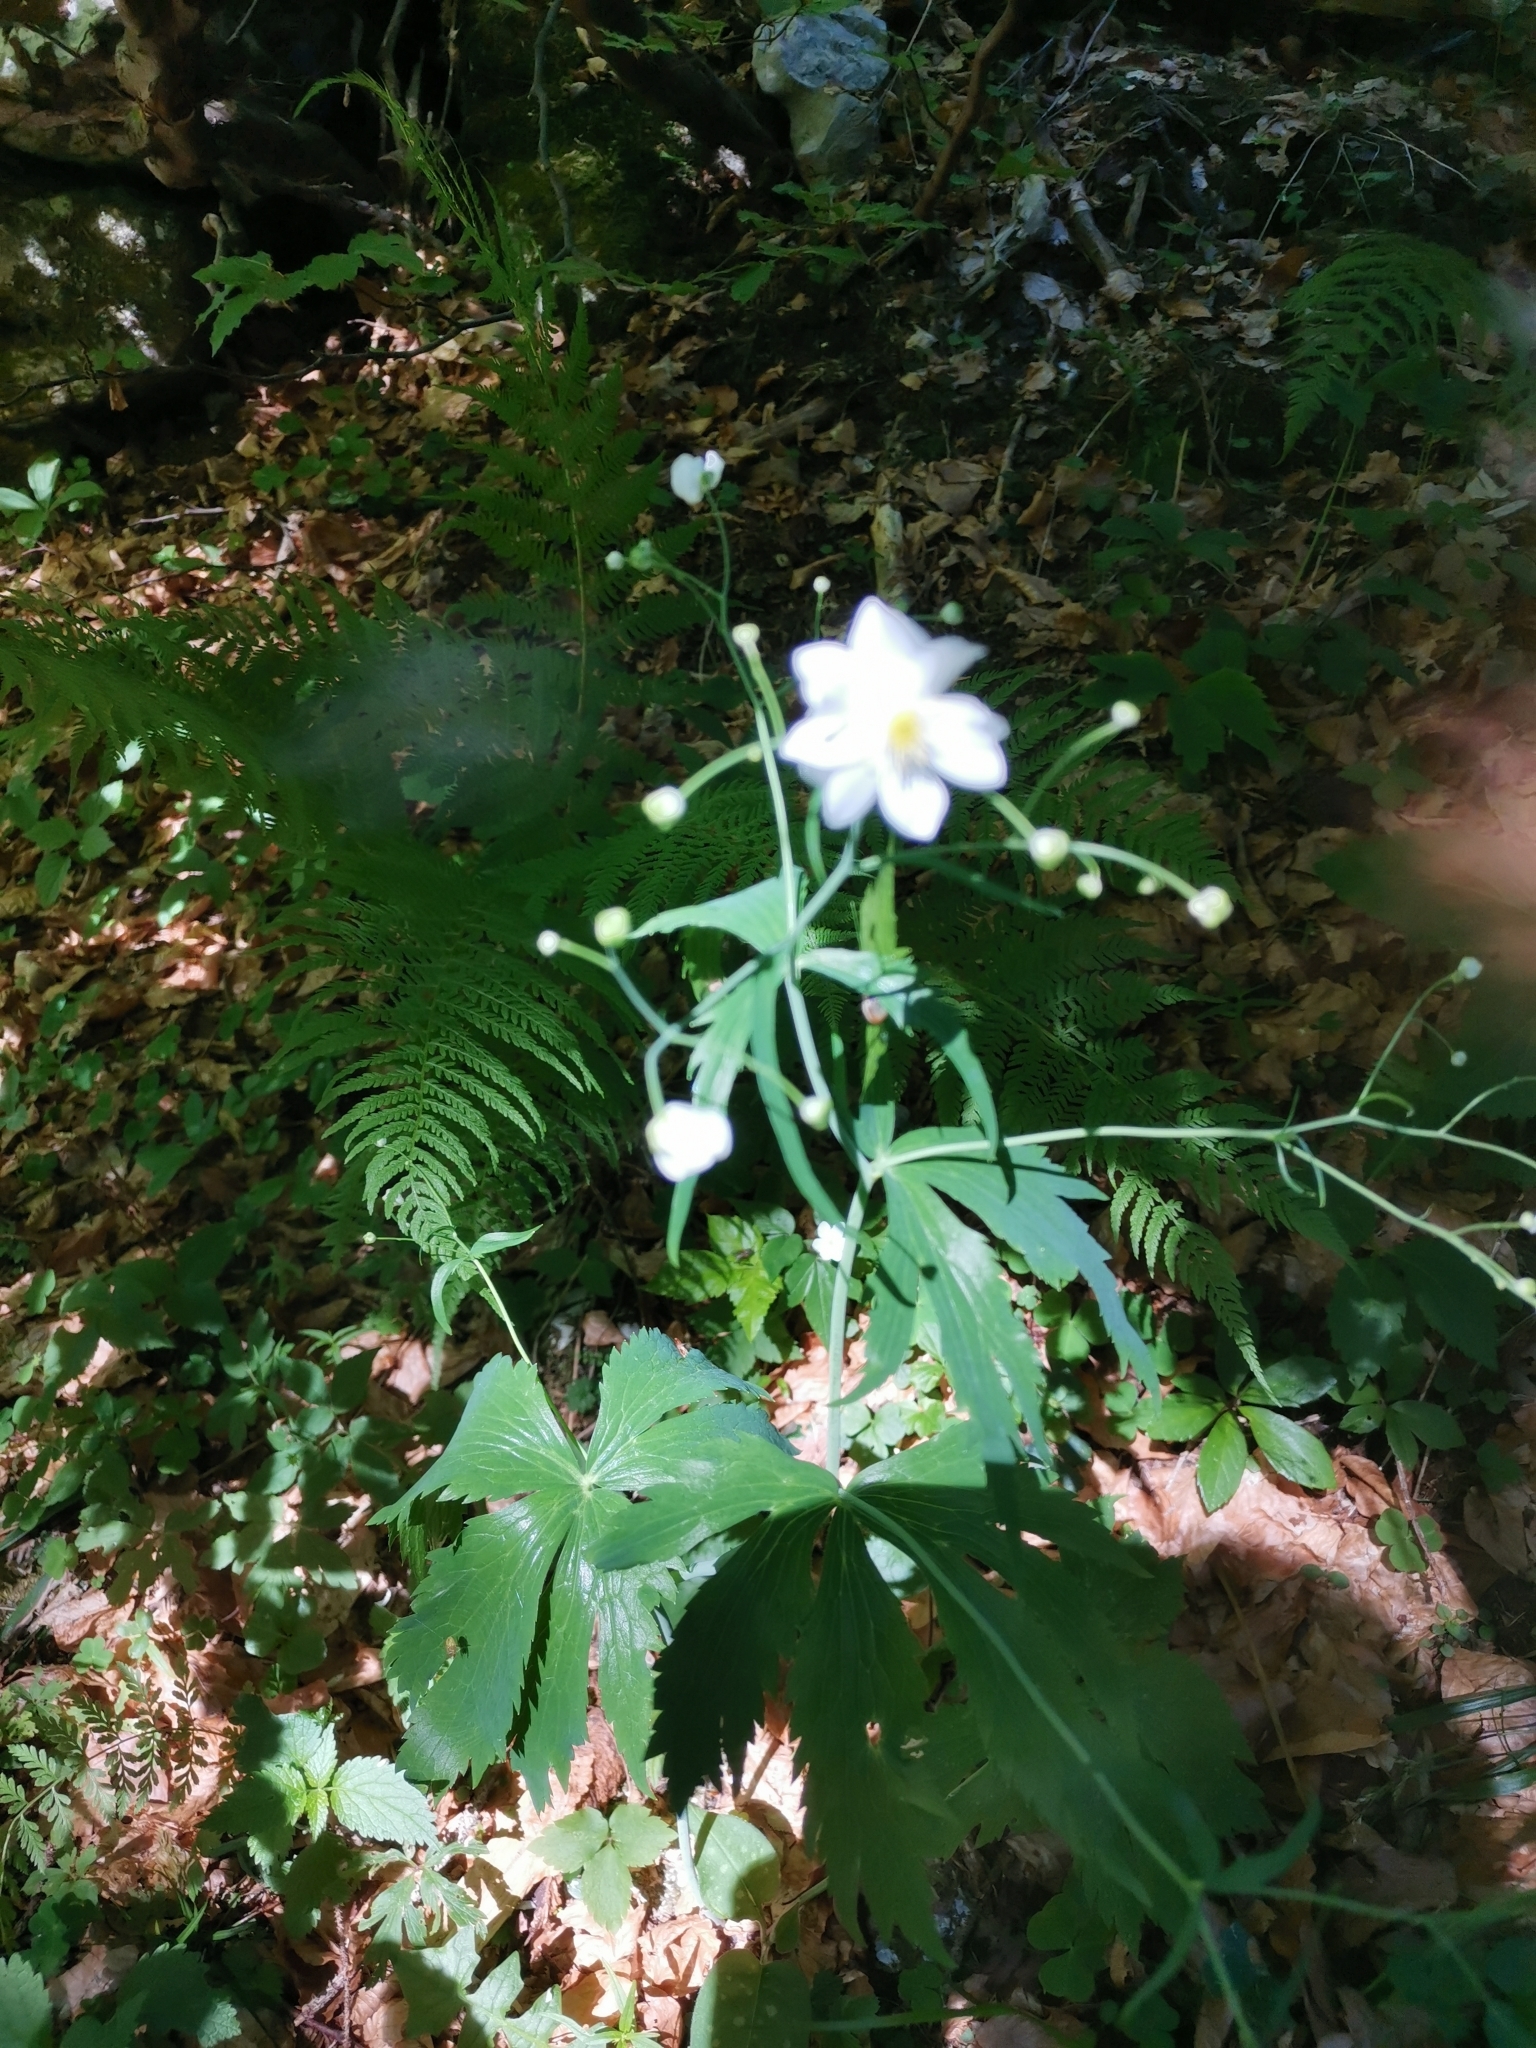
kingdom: Plantae
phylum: Tracheophyta
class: Magnoliopsida
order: Ranunculales
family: Ranunculaceae
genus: Ranunculus
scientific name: Ranunculus platanifolius
